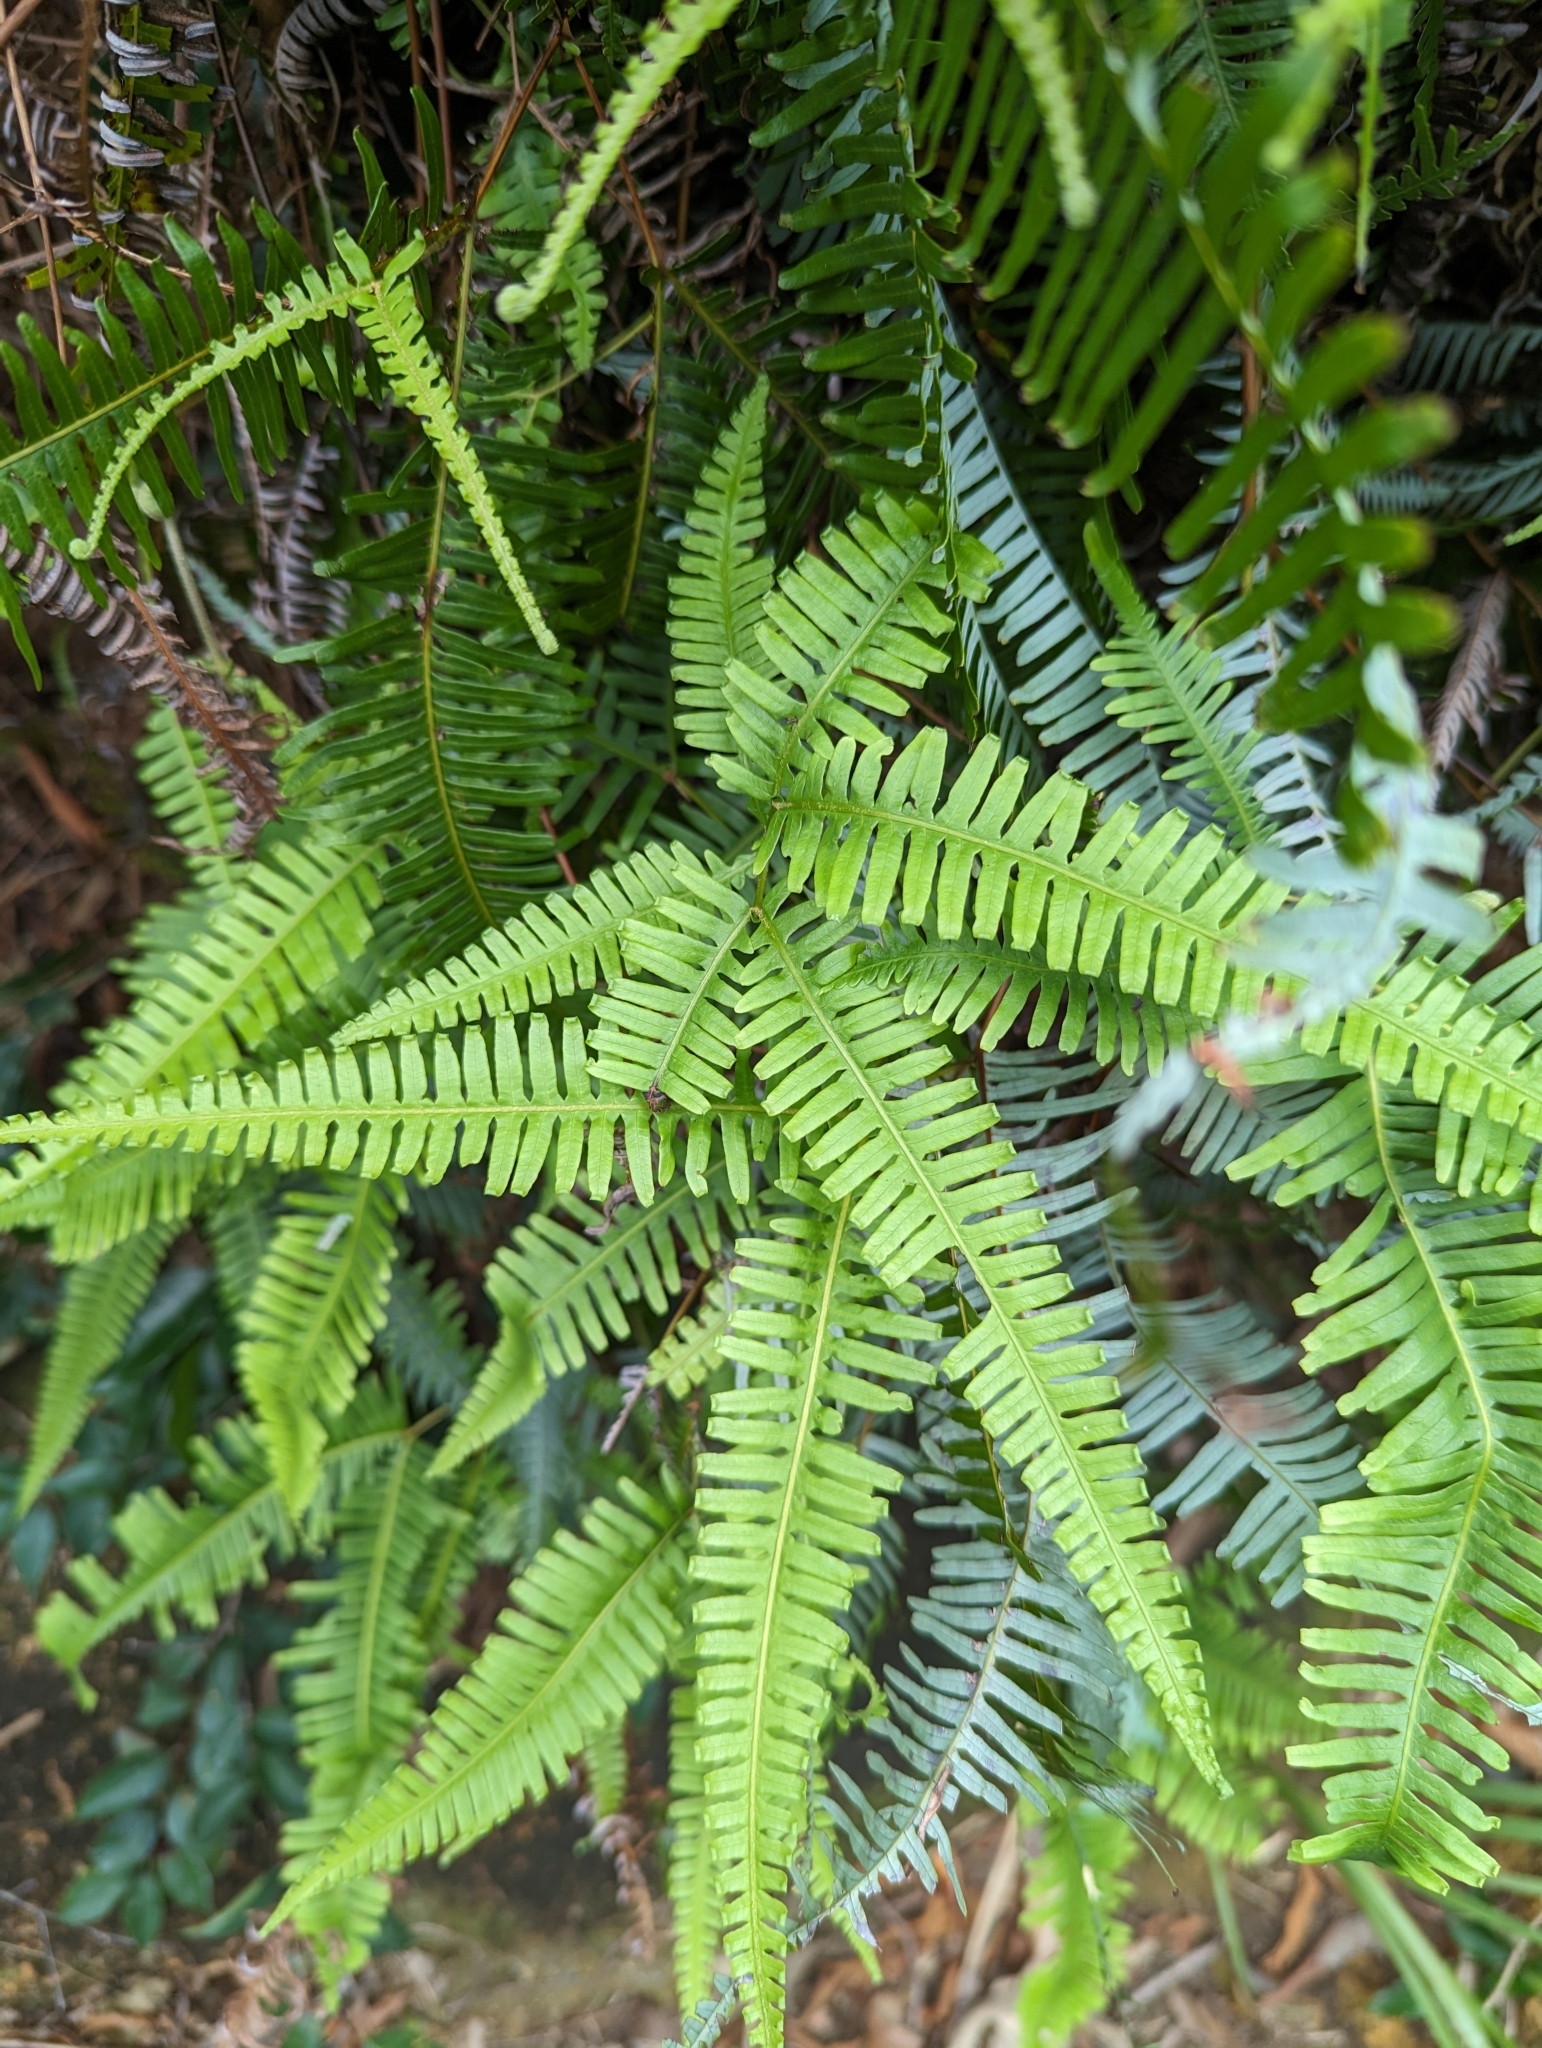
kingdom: Plantae
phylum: Tracheophyta
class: Polypodiopsida
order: Gleicheniales
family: Gleicheniaceae
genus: Dicranopteris
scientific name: Dicranopteris pedata
